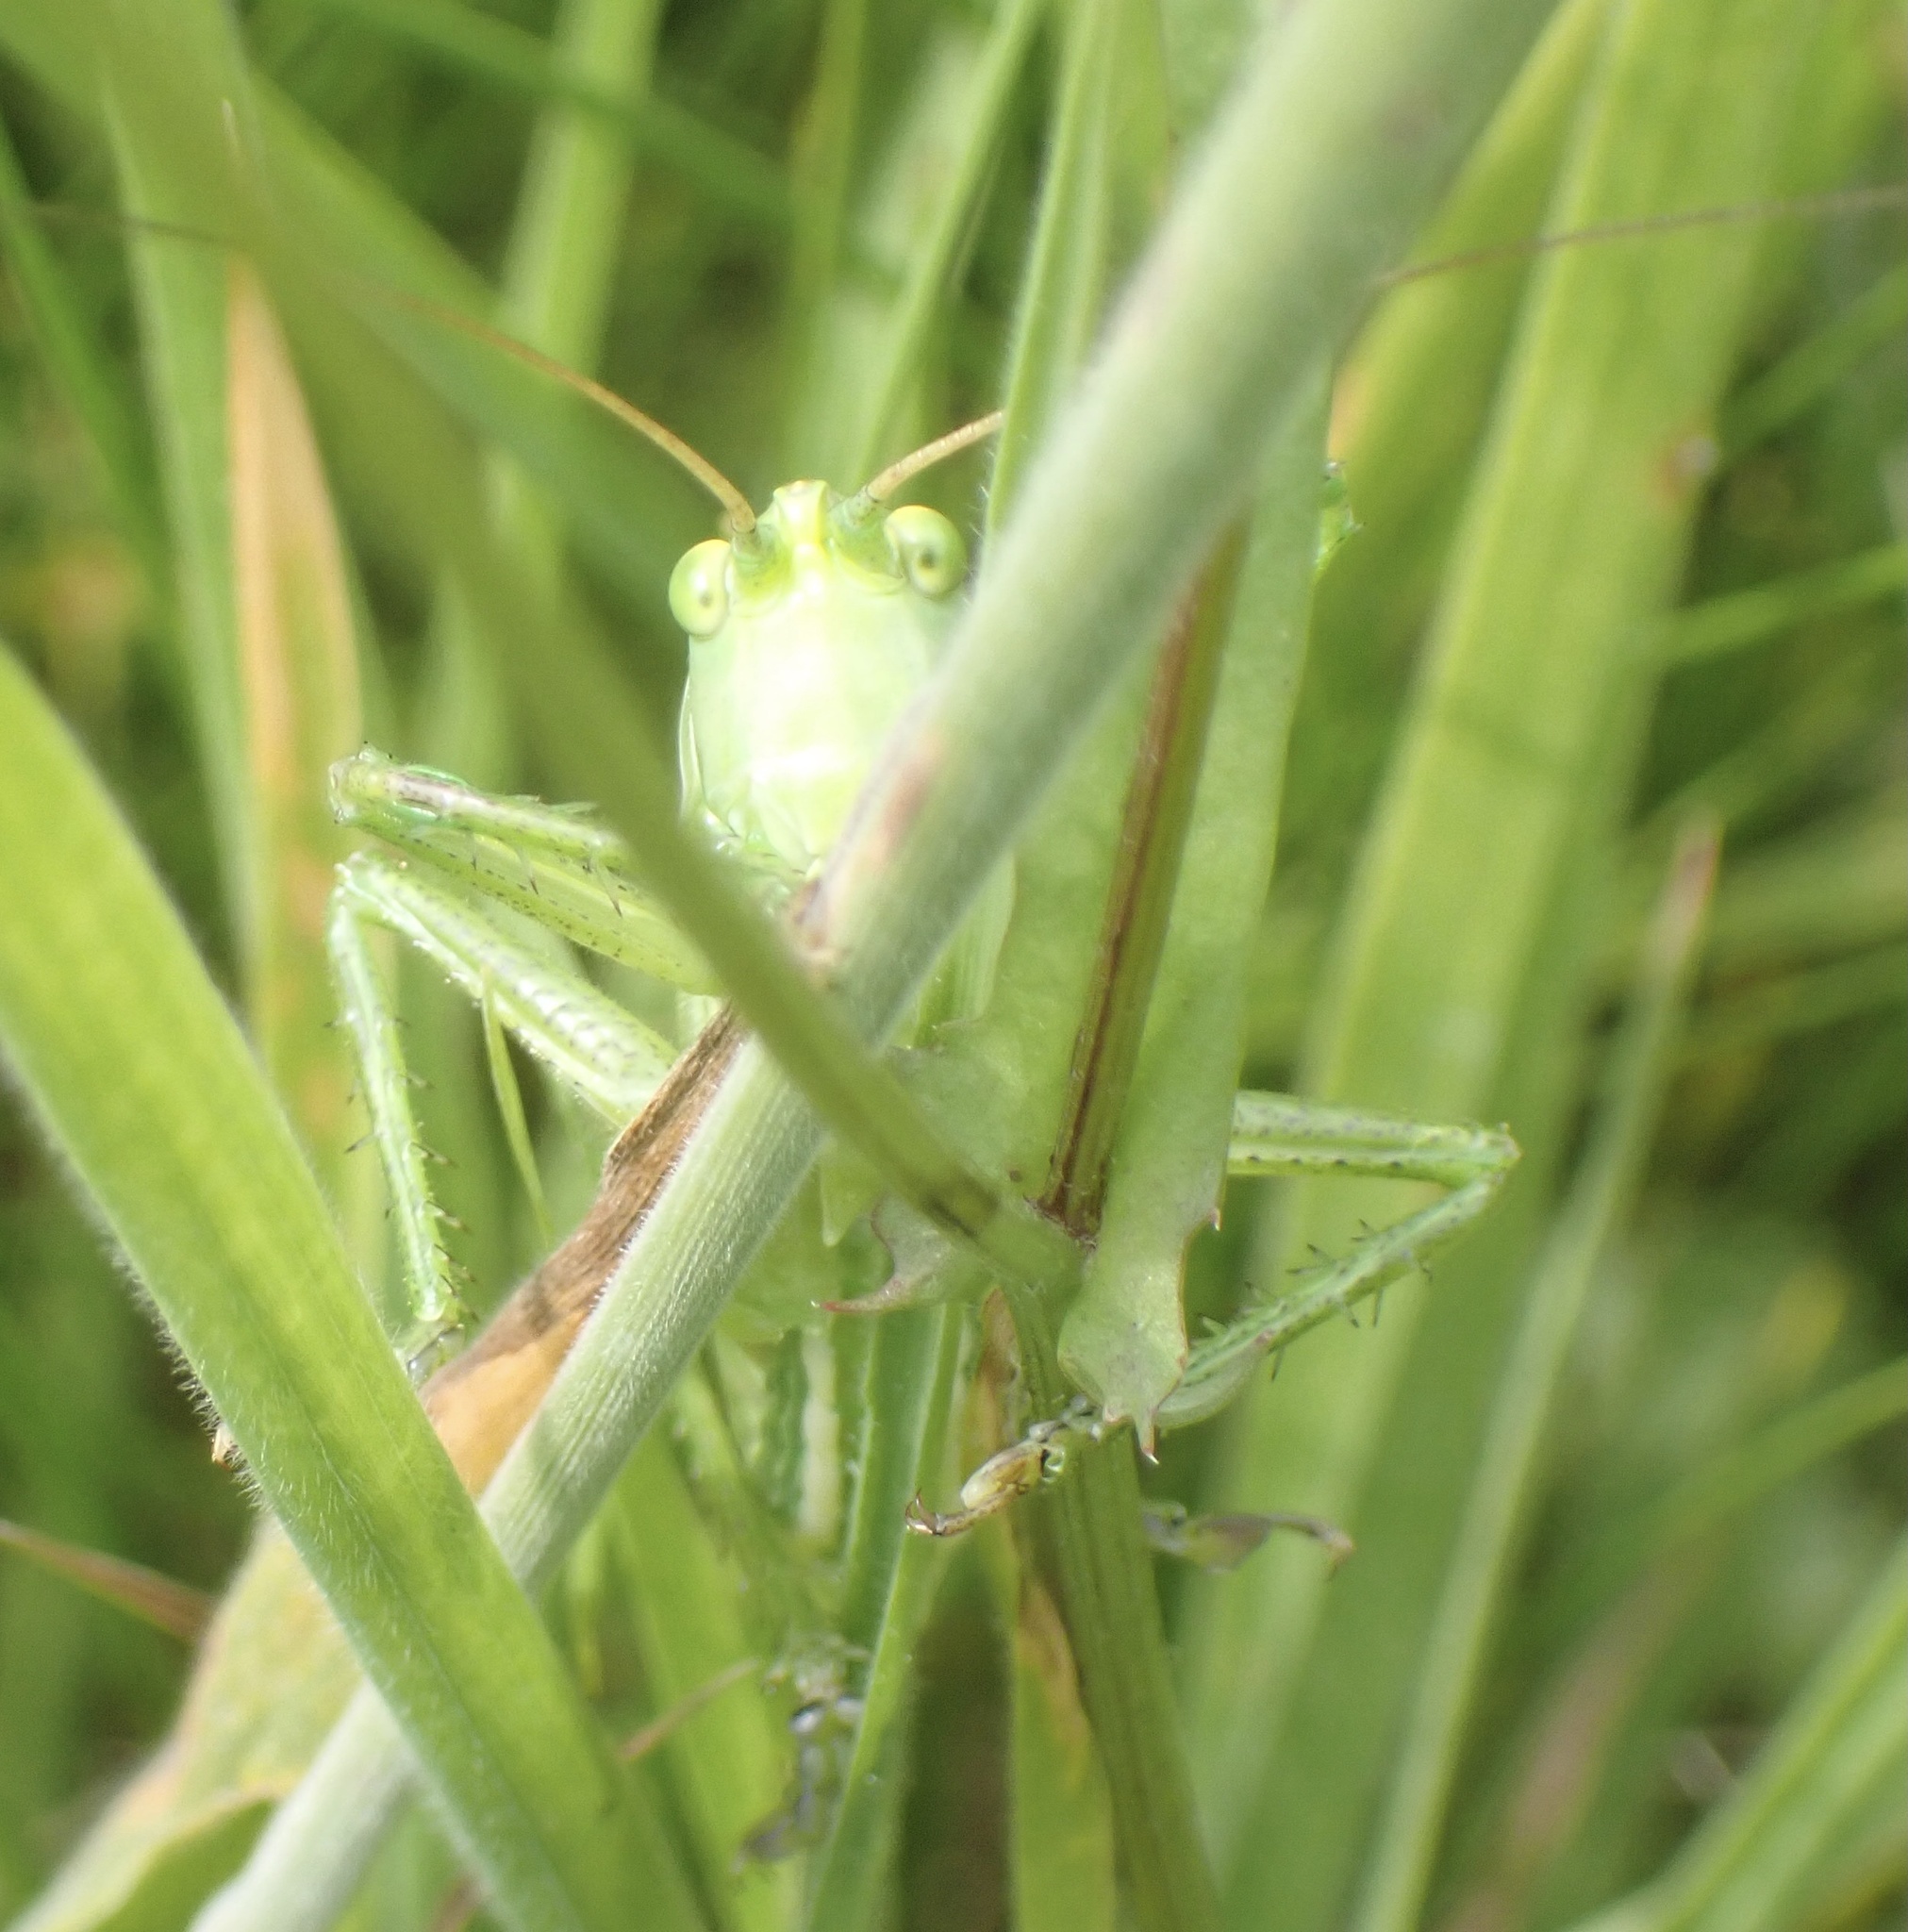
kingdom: Animalia
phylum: Arthropoda
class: Insecta
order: Orthoptera
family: Tettigoniidae
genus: Tettigonia
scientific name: Tettigonia viridissima
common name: Great green bush-cricket
